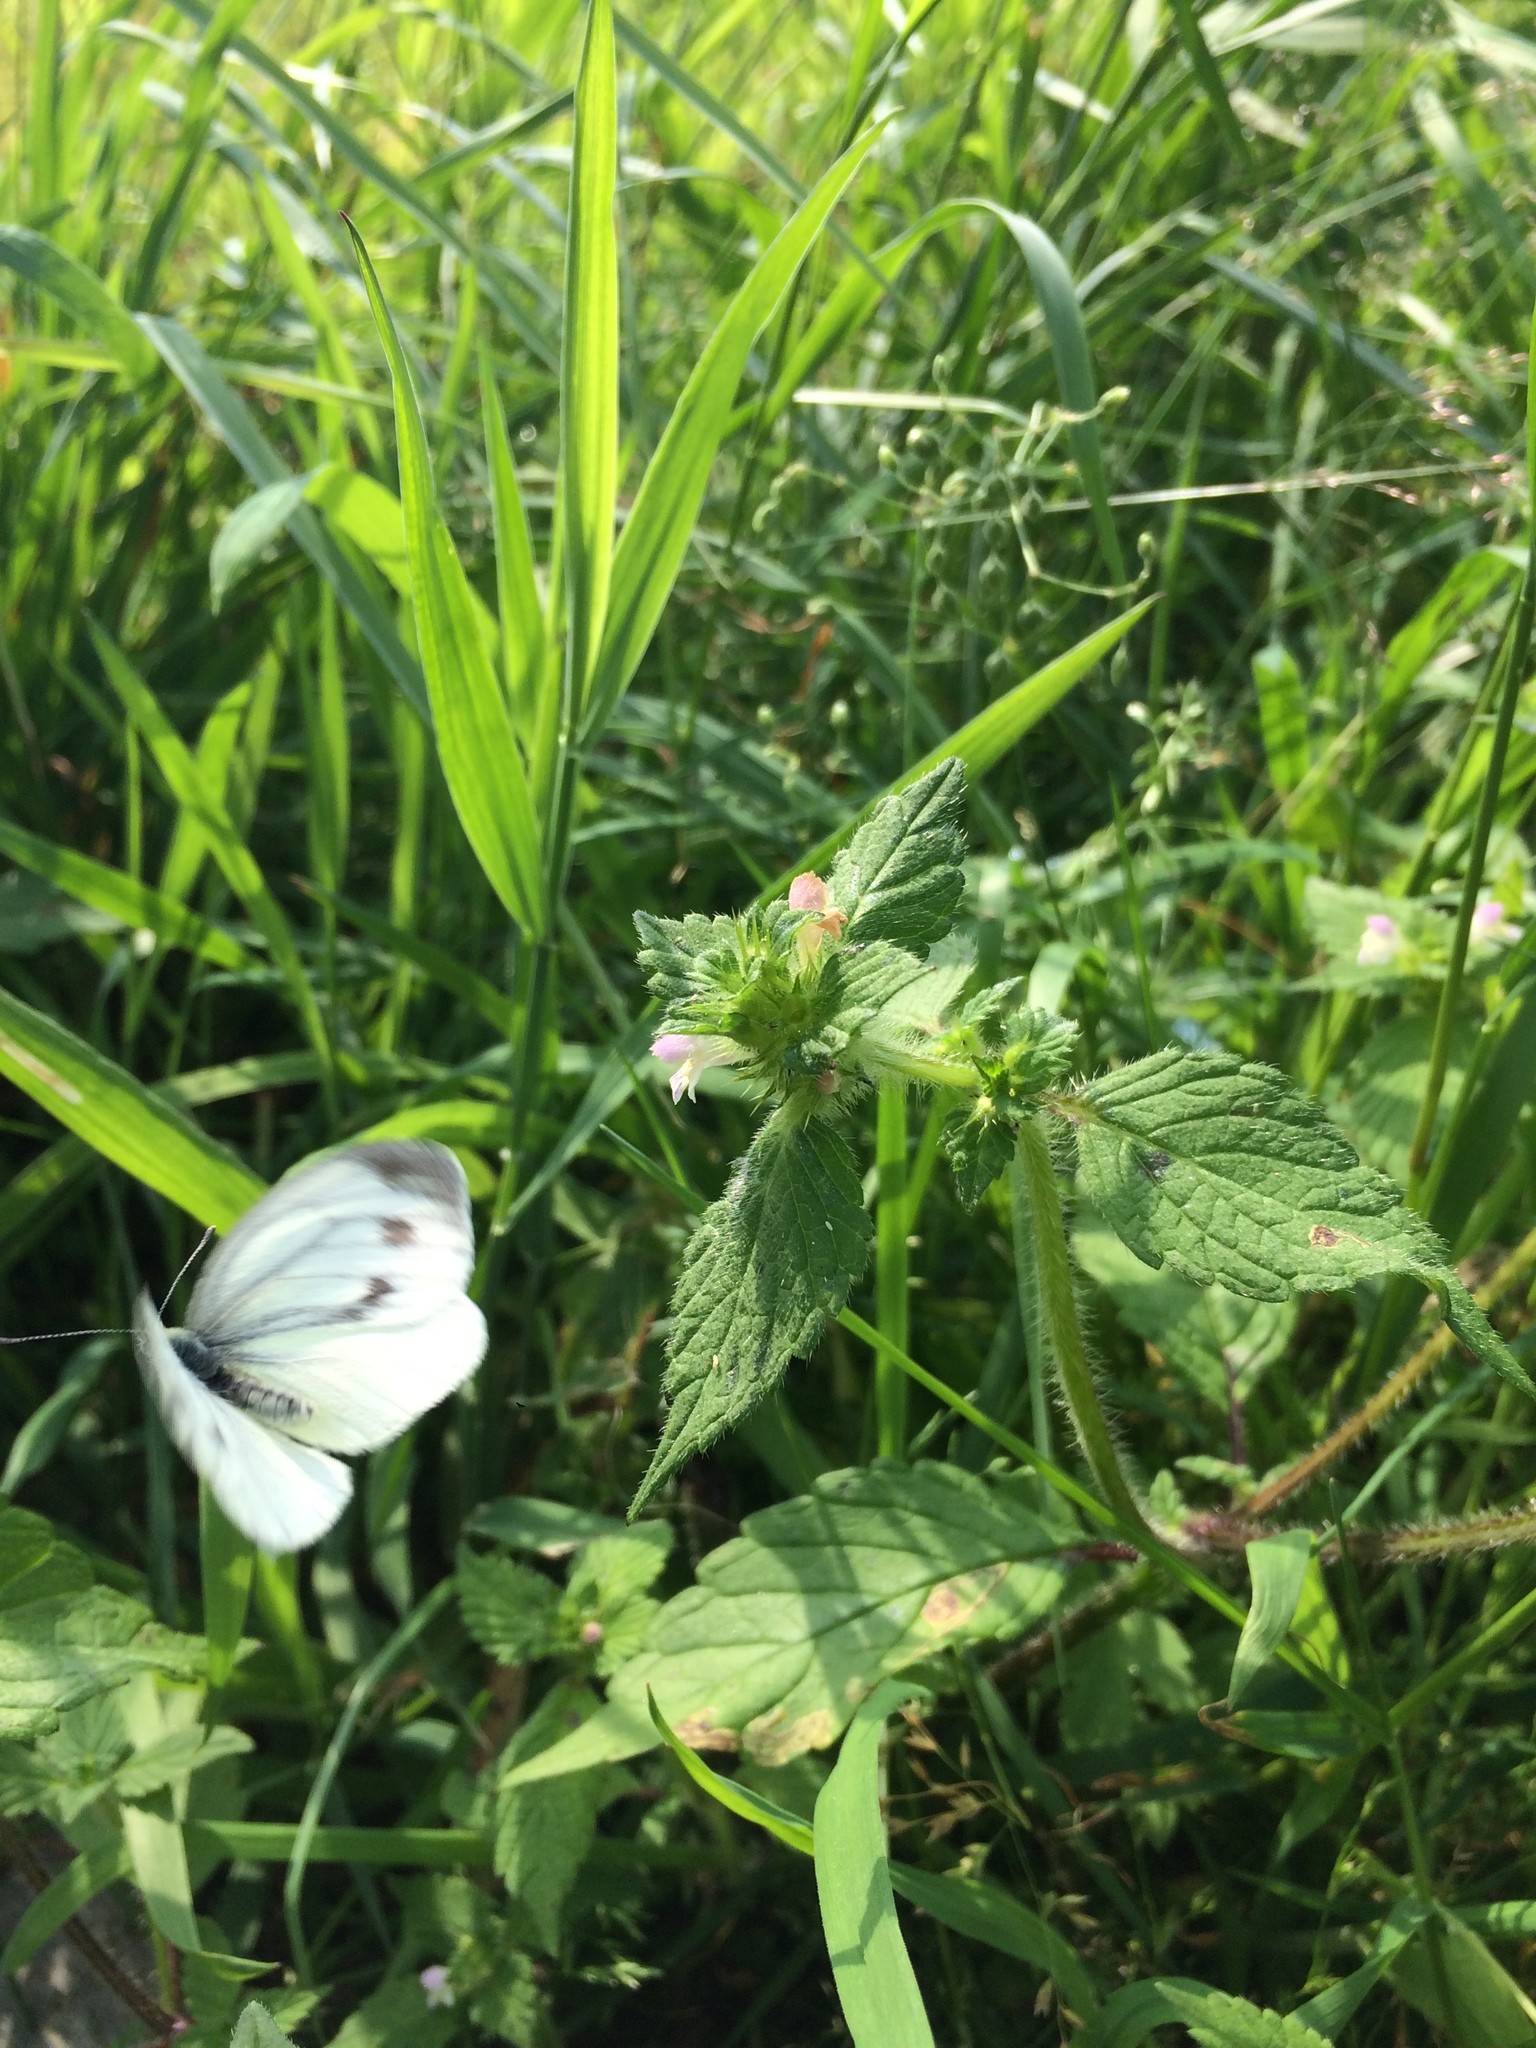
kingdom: Animalia
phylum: Arthropoda
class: Insecta
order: Lepidoptera
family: Pieridae
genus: Pieris
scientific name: Pieris napi
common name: Green-veined white
